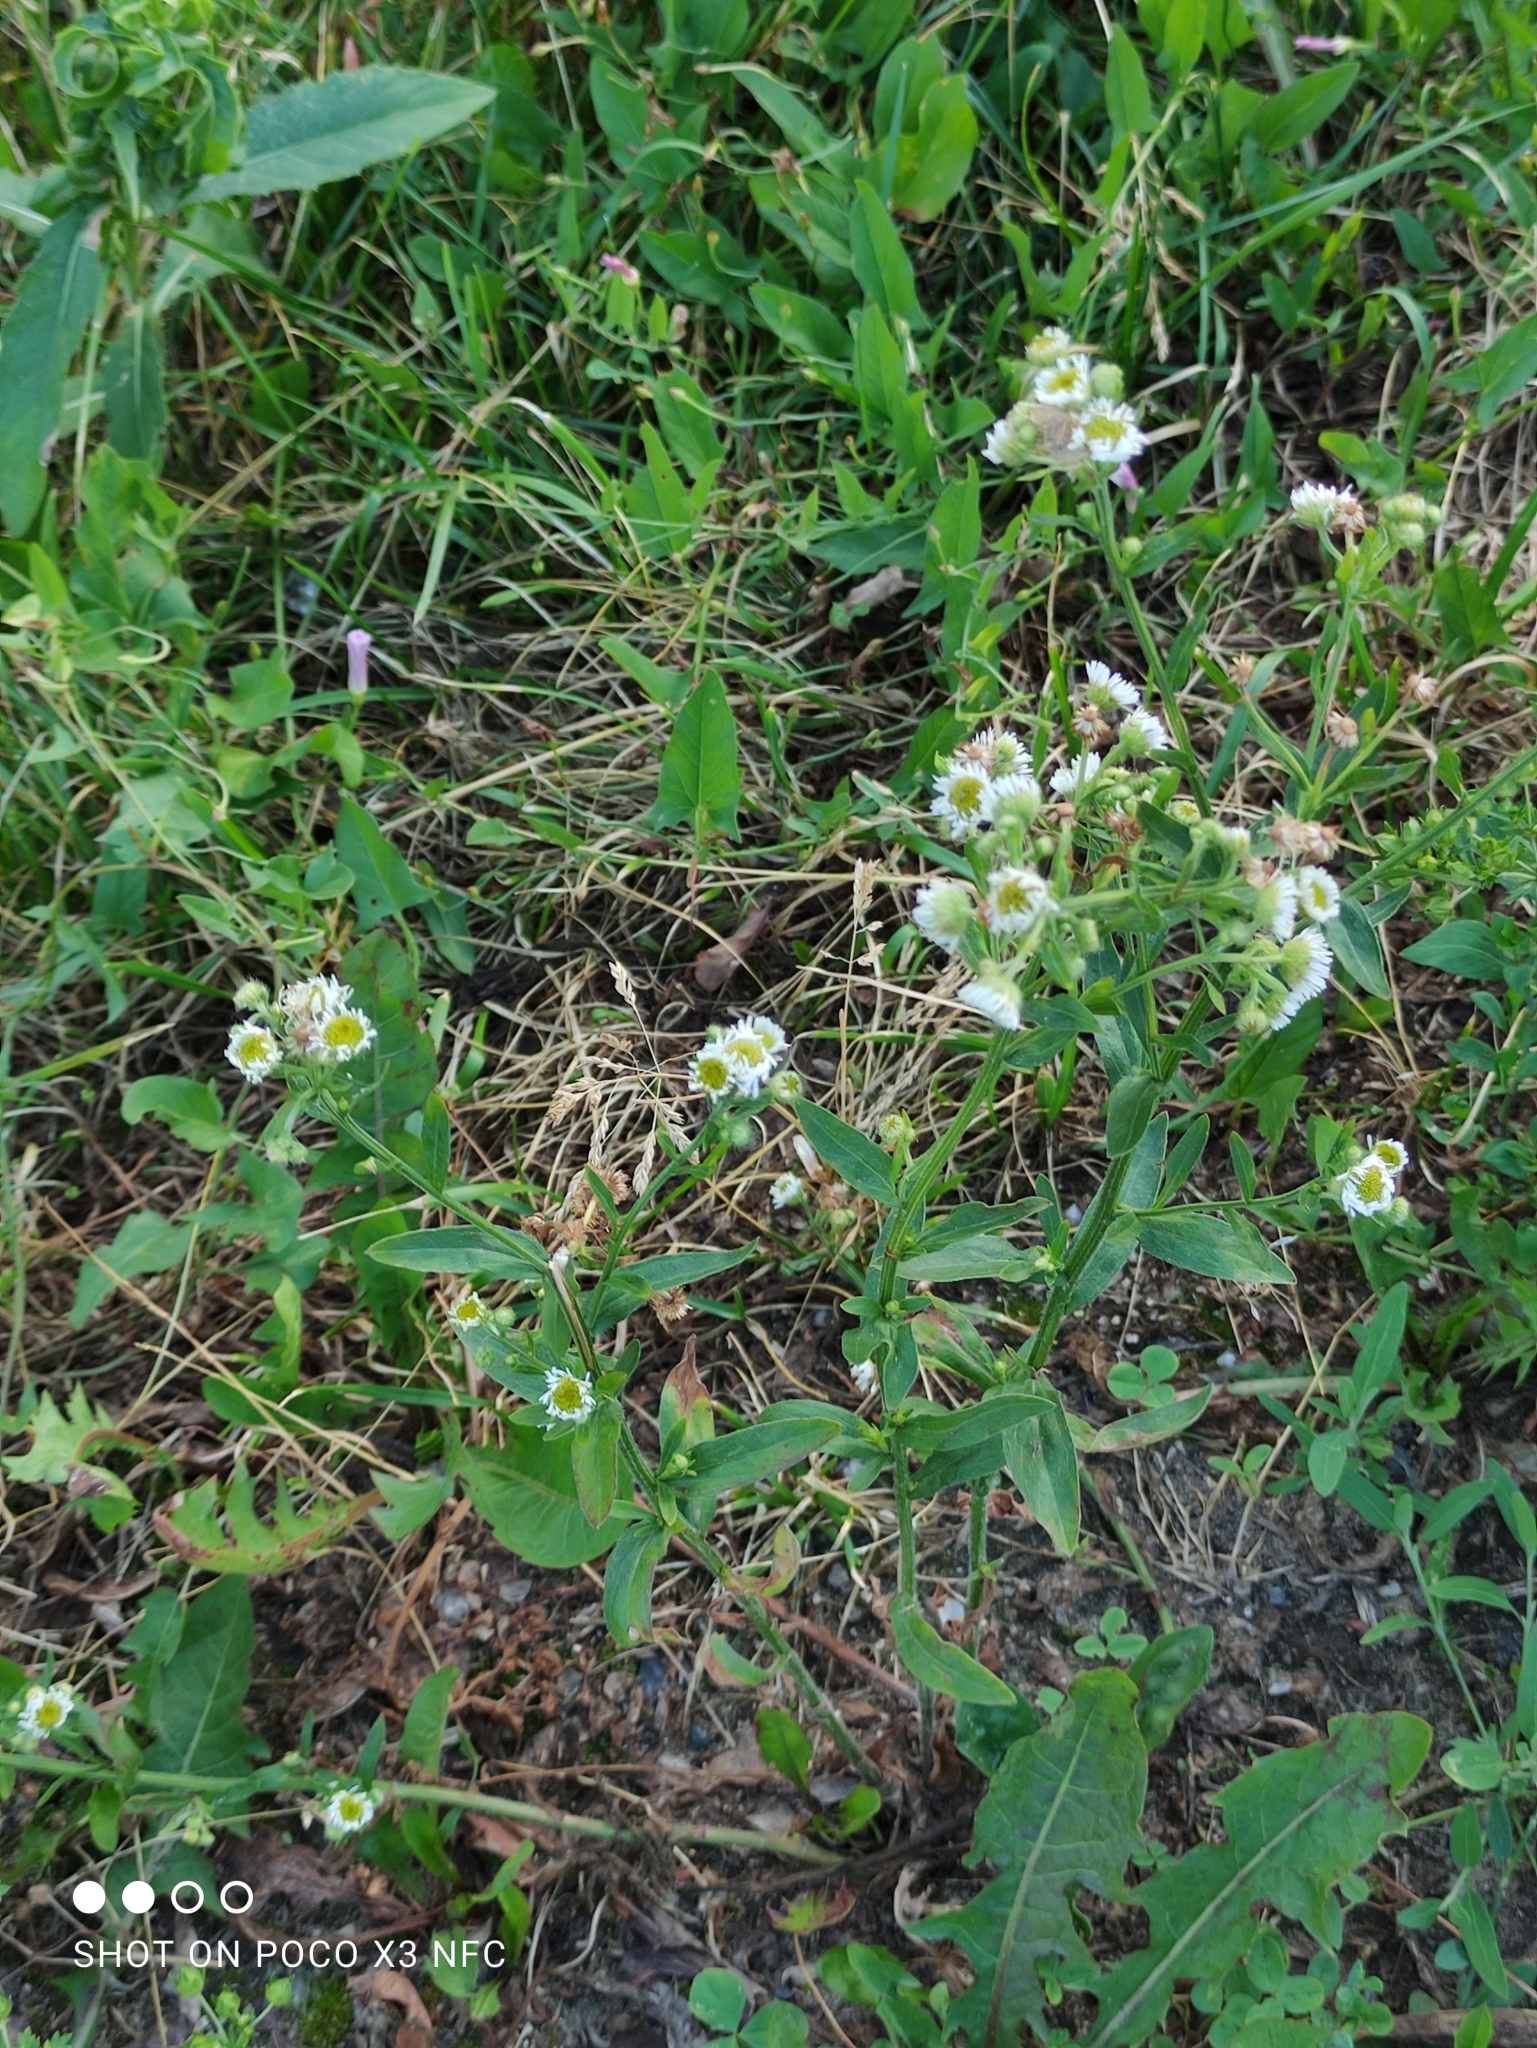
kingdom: Plantae
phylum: Tracheophyta
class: Magnoliopsida
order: Asterales
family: Asteraceae
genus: Erigeron
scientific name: Erigeron annuus
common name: Tall fleabane
